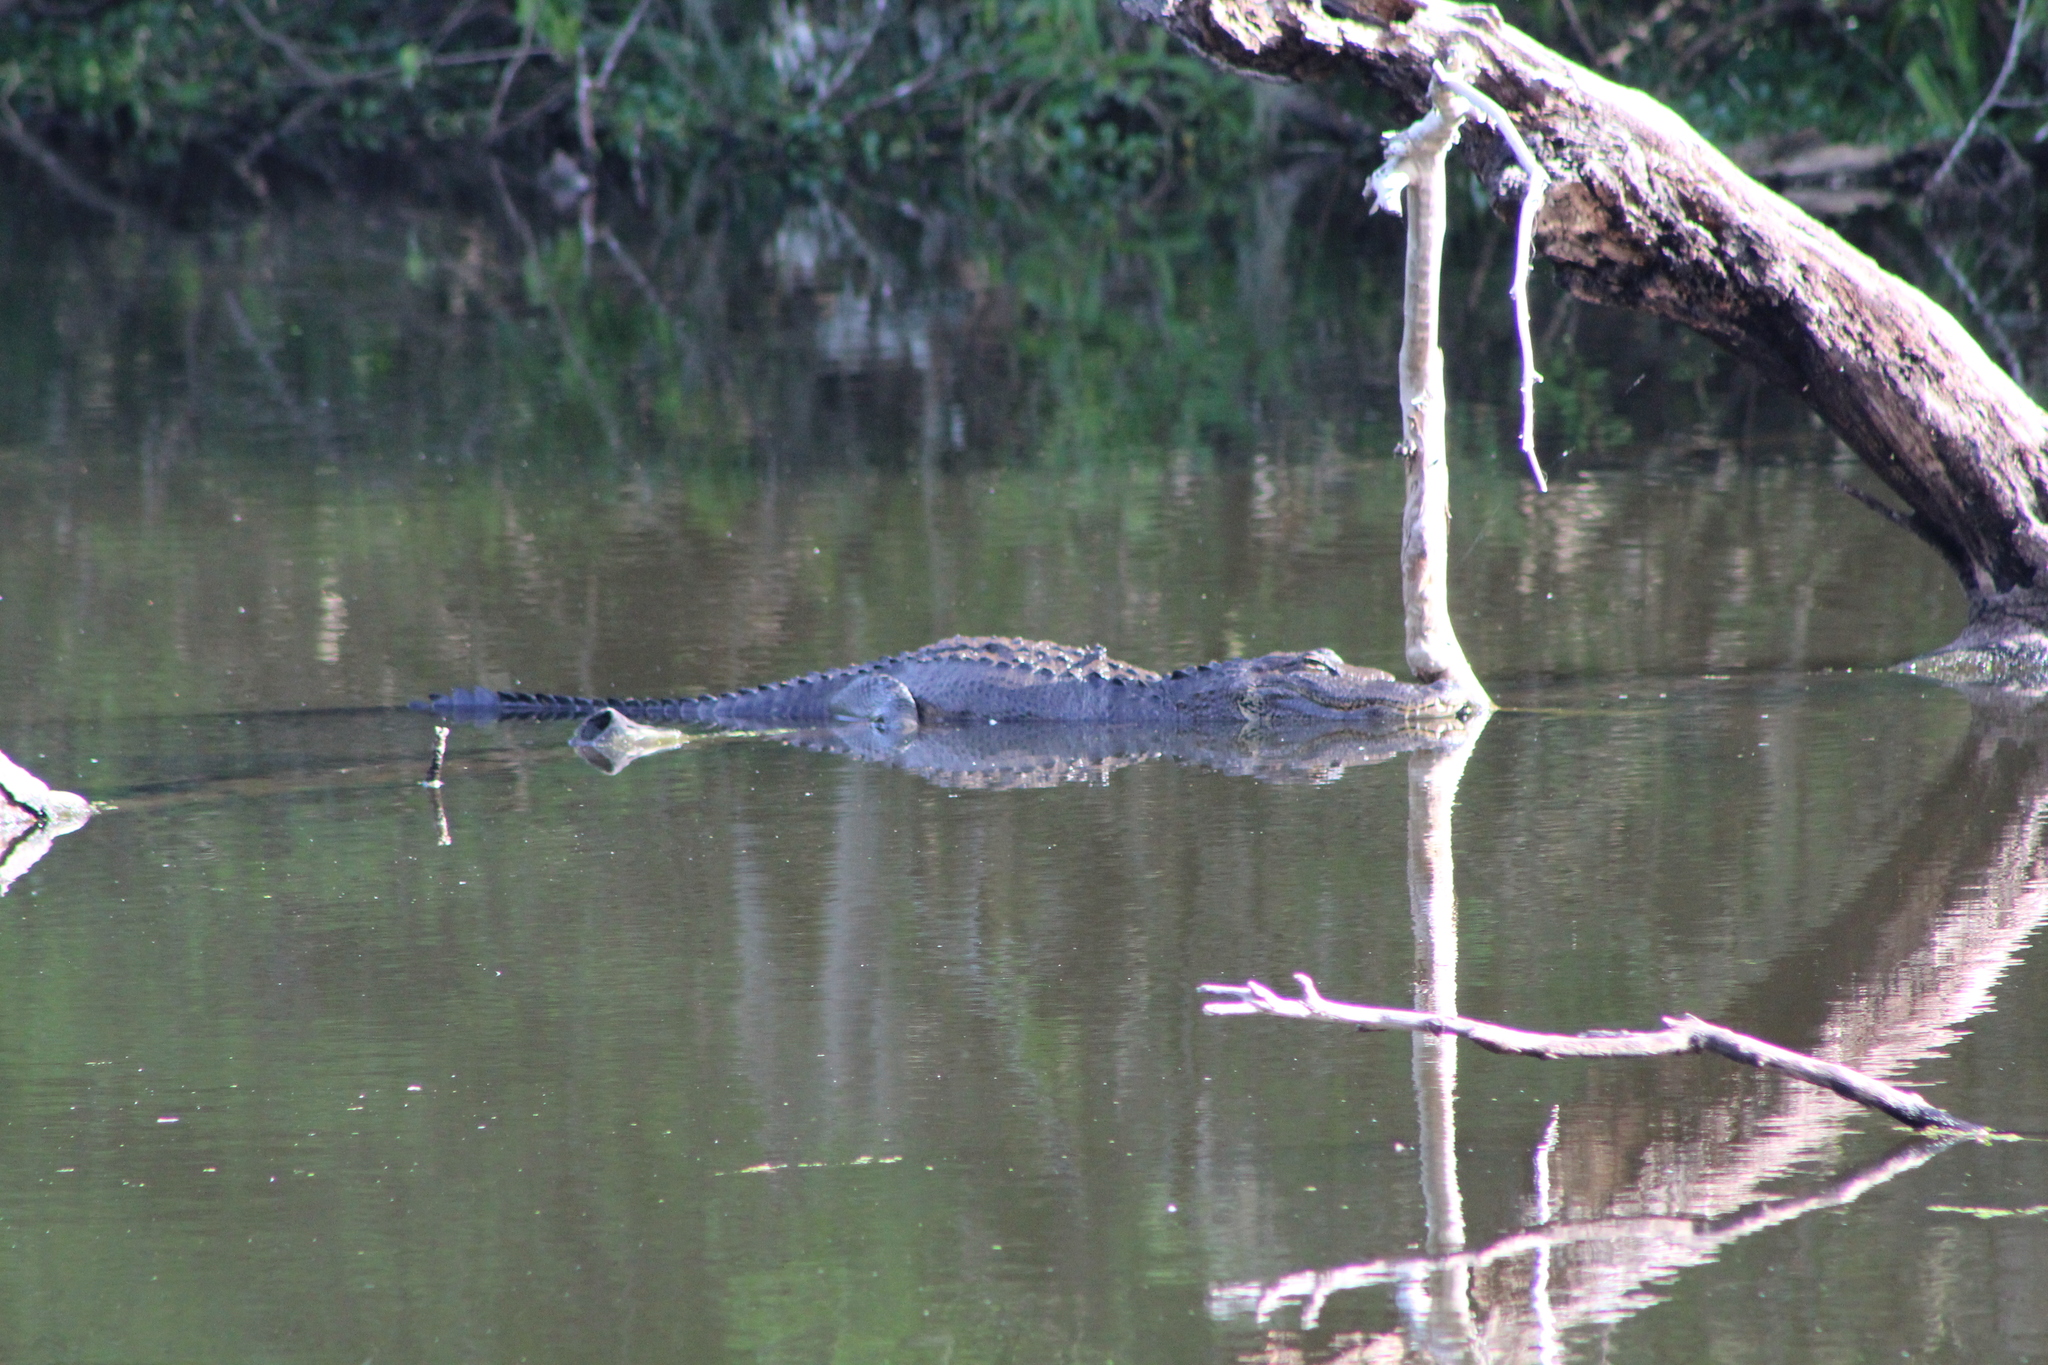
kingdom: Animalia
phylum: Chordata
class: Crocodylia
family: Alligatoridae
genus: Alligator
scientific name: Alligator mississippiensis
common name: American alligator
